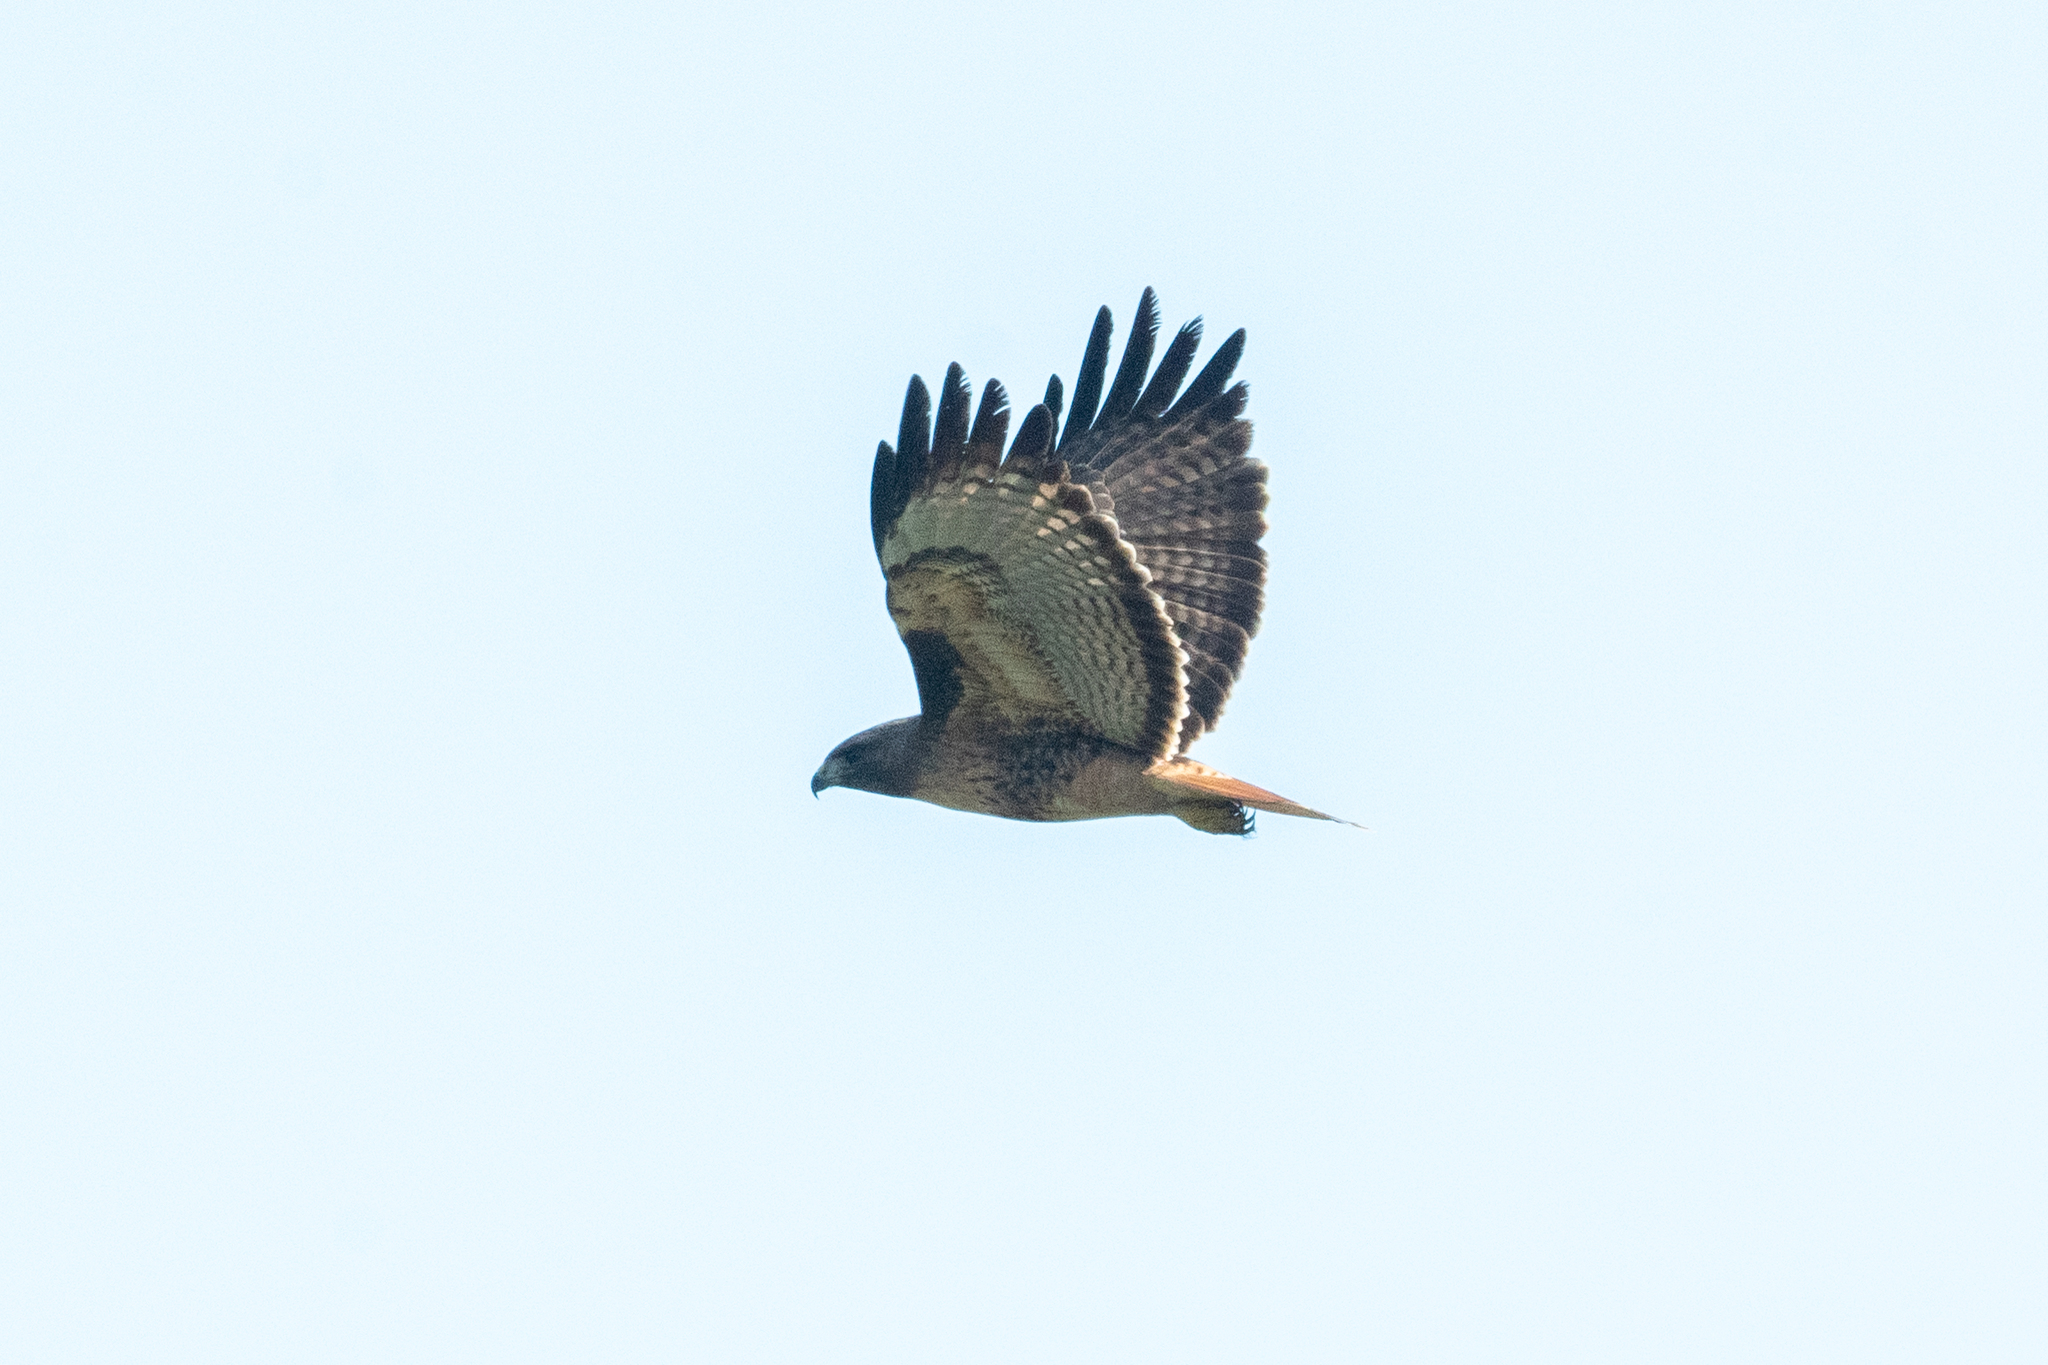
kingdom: Animalia
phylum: Chordata
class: Aves
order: Accipitriformes
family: Accipitridae
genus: Buteo
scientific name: Buteo jamaicensis
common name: Red-tailed hawk
